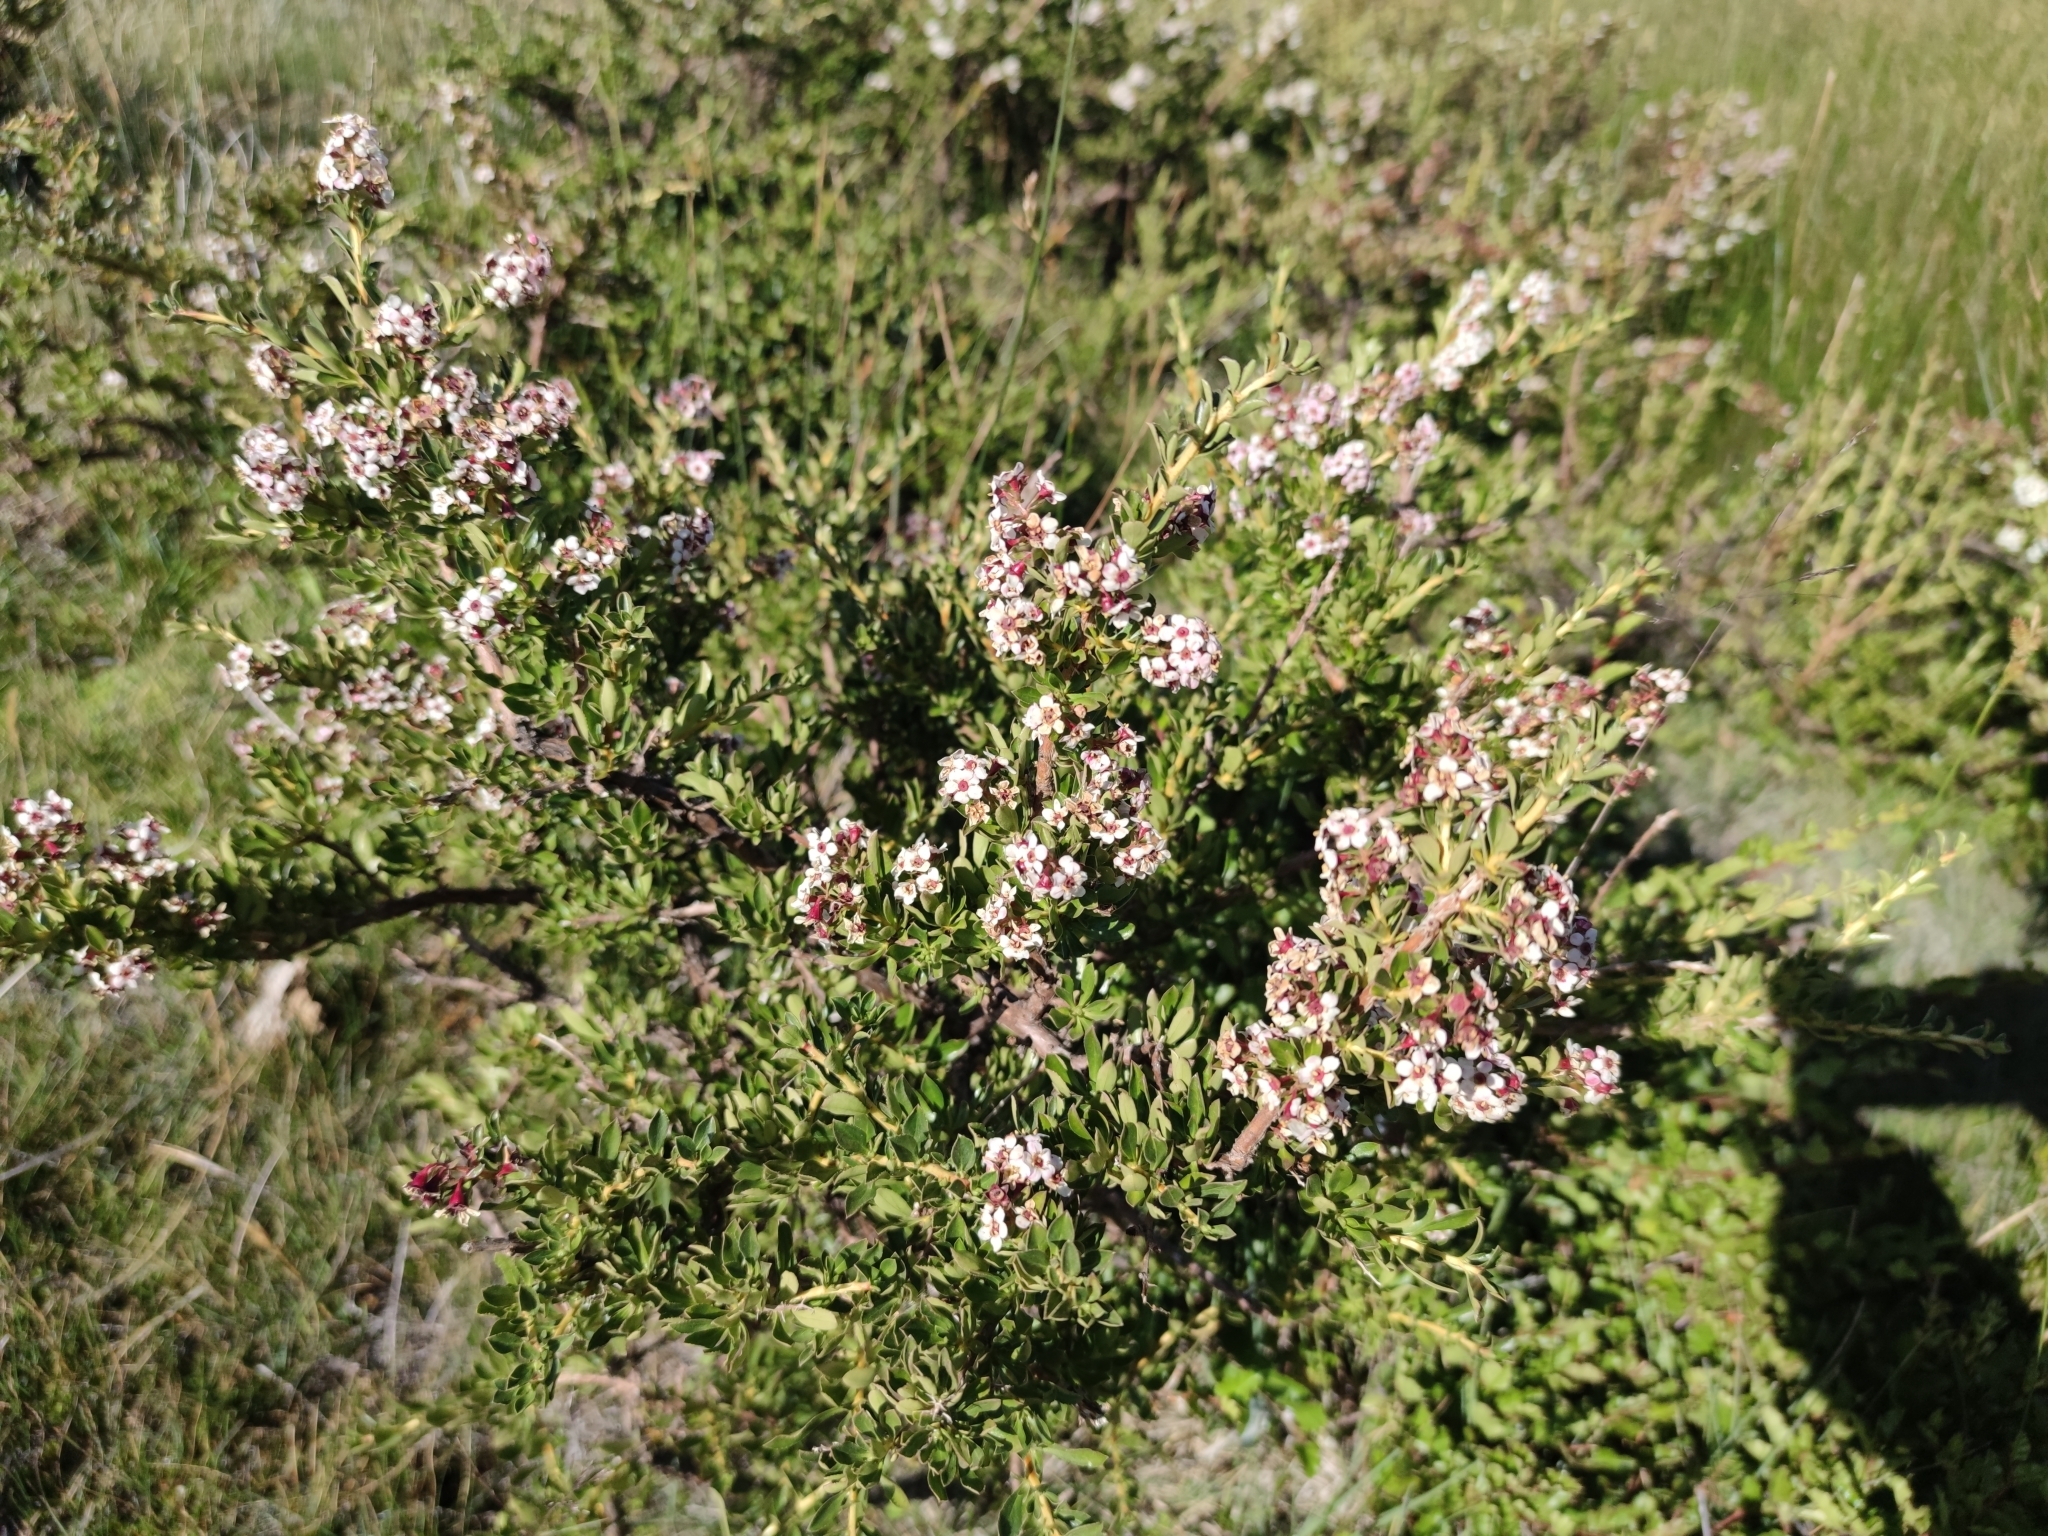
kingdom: Plantae
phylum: Tracheophyta
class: Magnoliopsida
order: Escalloniales
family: Escalloniaceae
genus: Escallonia
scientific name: Escallonia virgata
